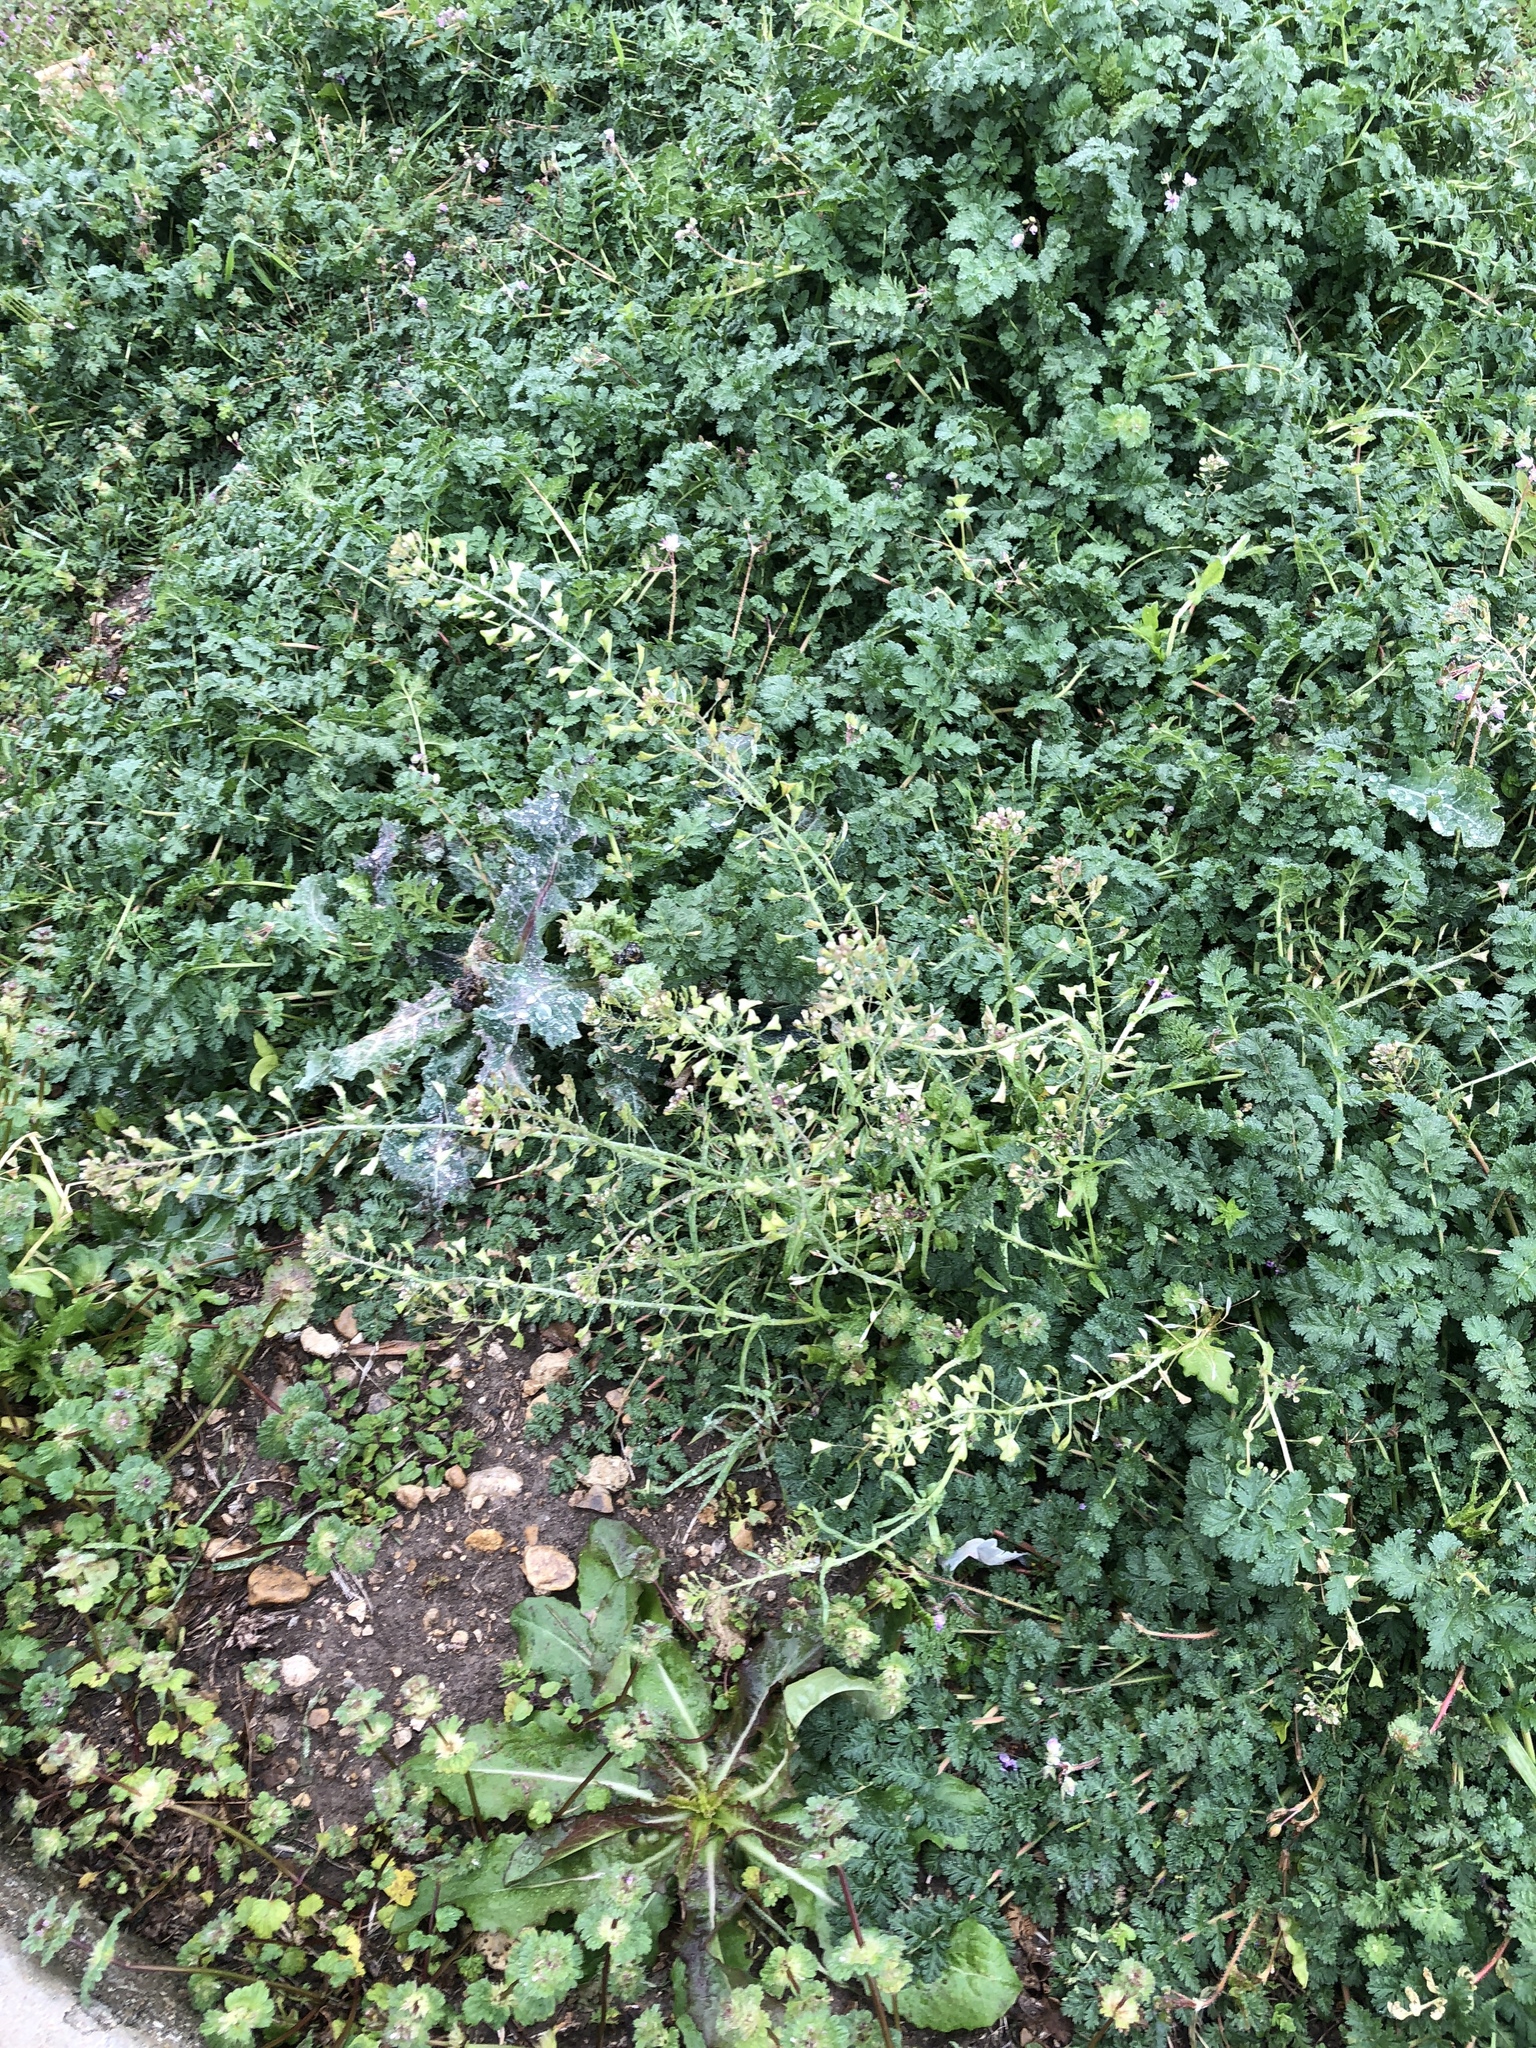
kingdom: Plantae
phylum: Tracheophyta
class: Magnoliopsida
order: Brassicales
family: Brassicaceae
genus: Capsella
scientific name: Capsella bursa-pastoris
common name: Shepherd's purse
